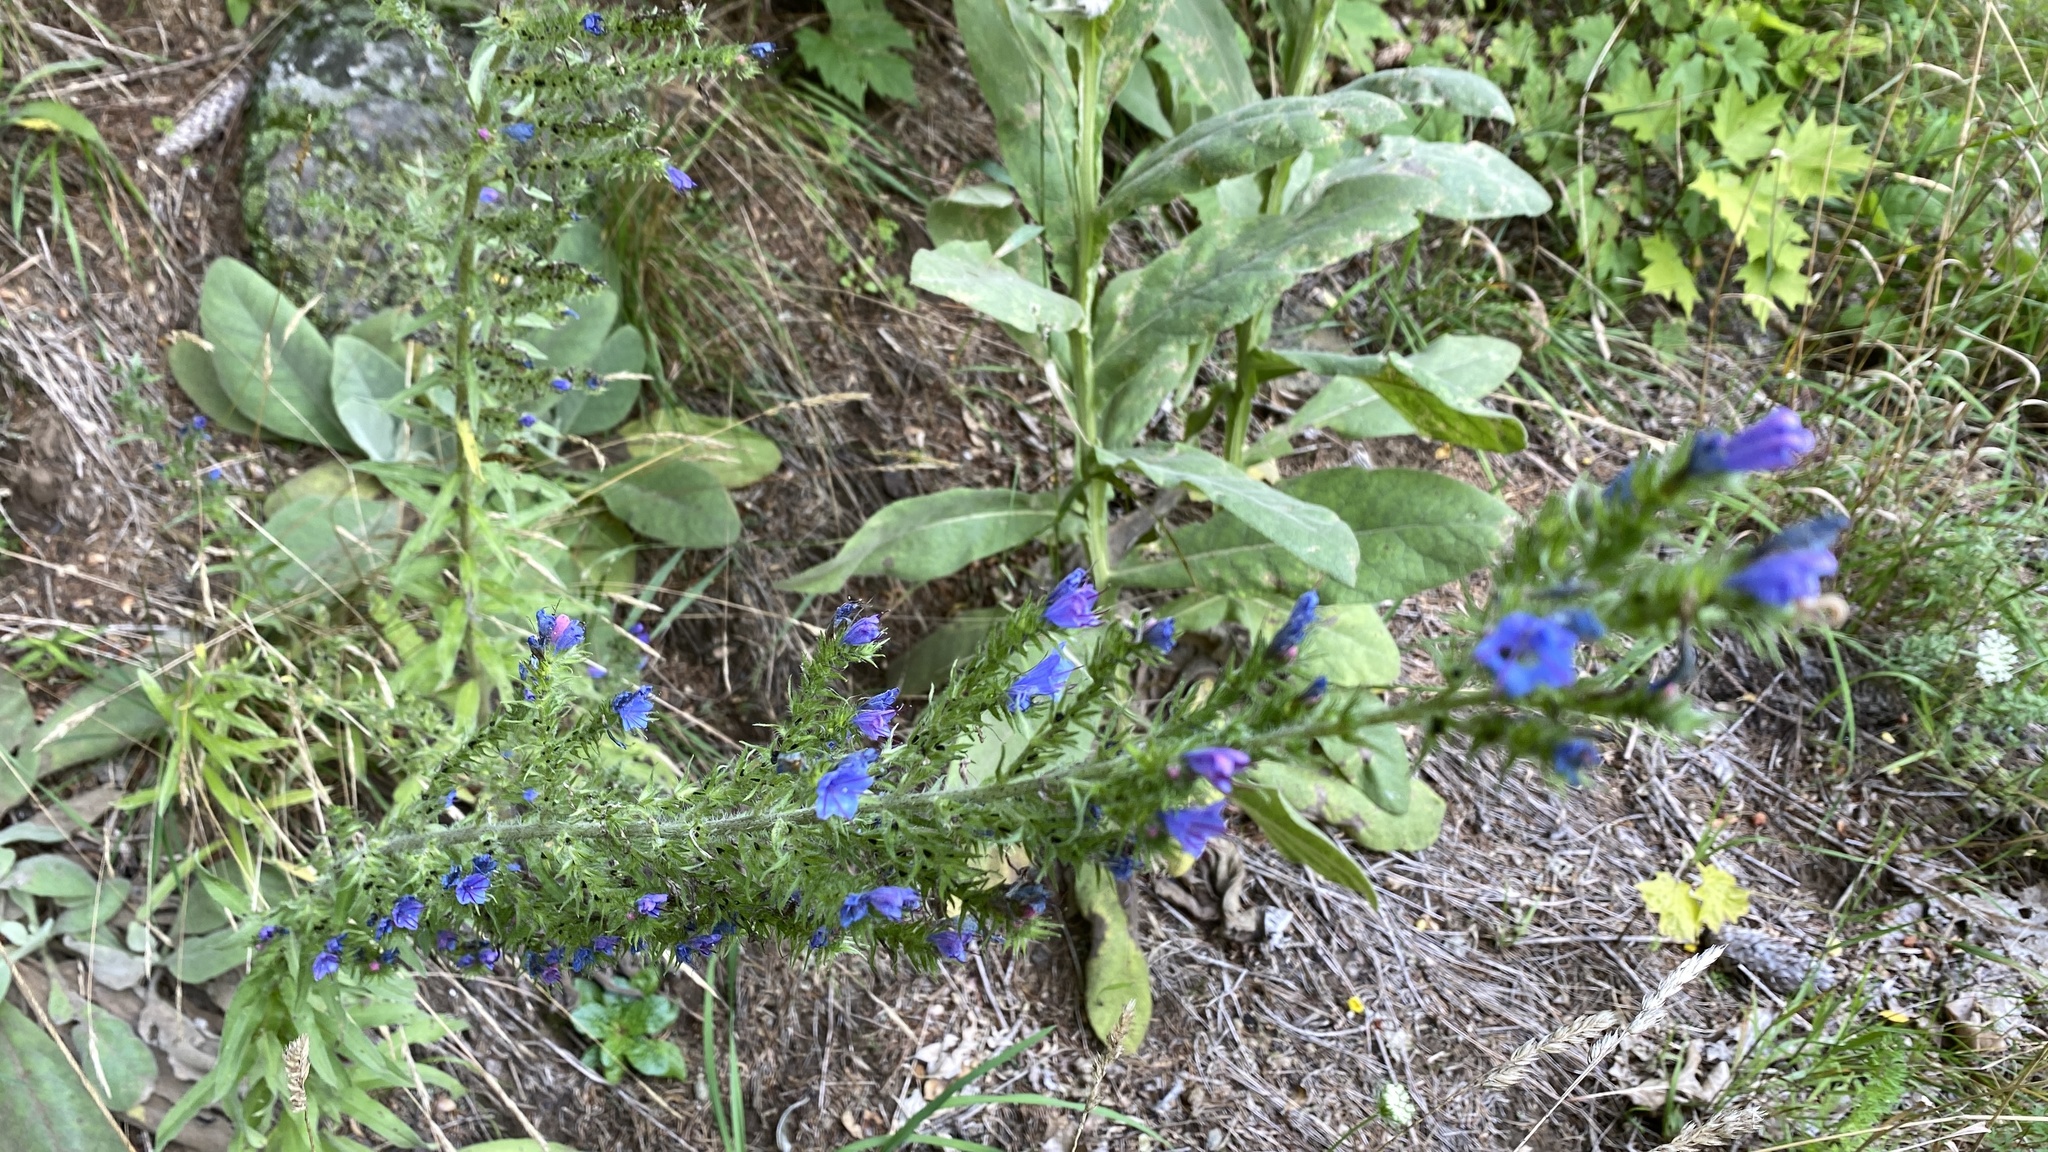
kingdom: Plantae
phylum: Tracheophyta
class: Magnoliopsida
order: Boraginales
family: Boraginaceae
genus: Echium
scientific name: Echium vulgare
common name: Common viper's bugloss
